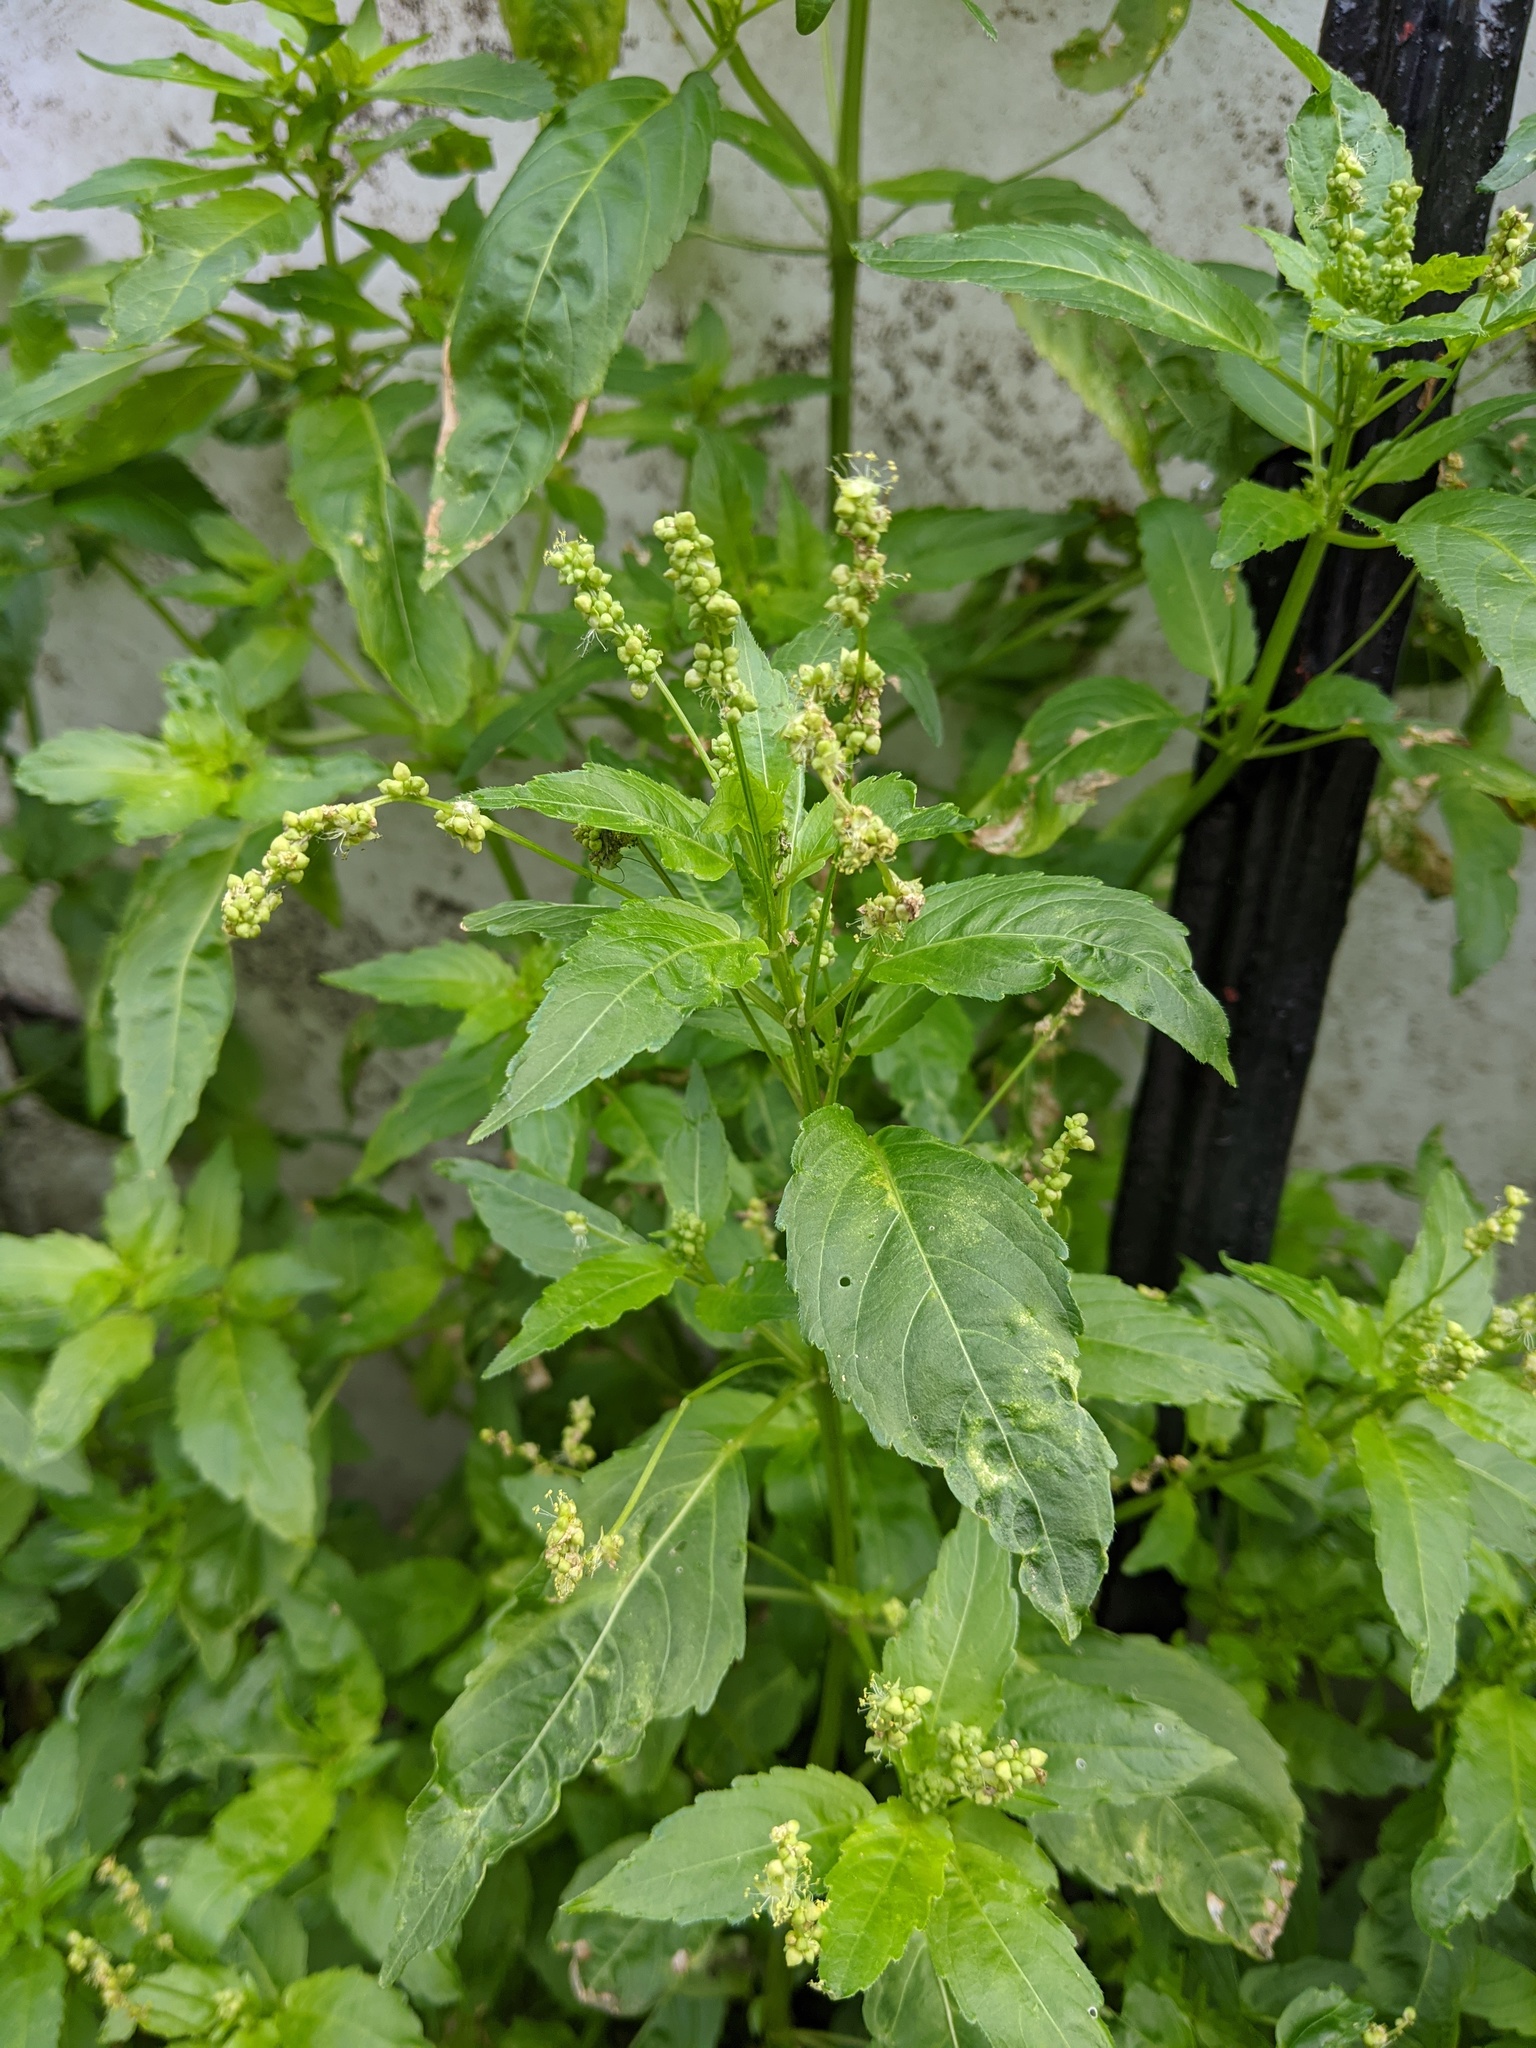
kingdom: Plantae
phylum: Tracheophyta
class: Magnoliopsida
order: Malpighiales
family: Euphorbiaceae
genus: Mercurialis
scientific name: Mercurialis annua
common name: Annual mercury
